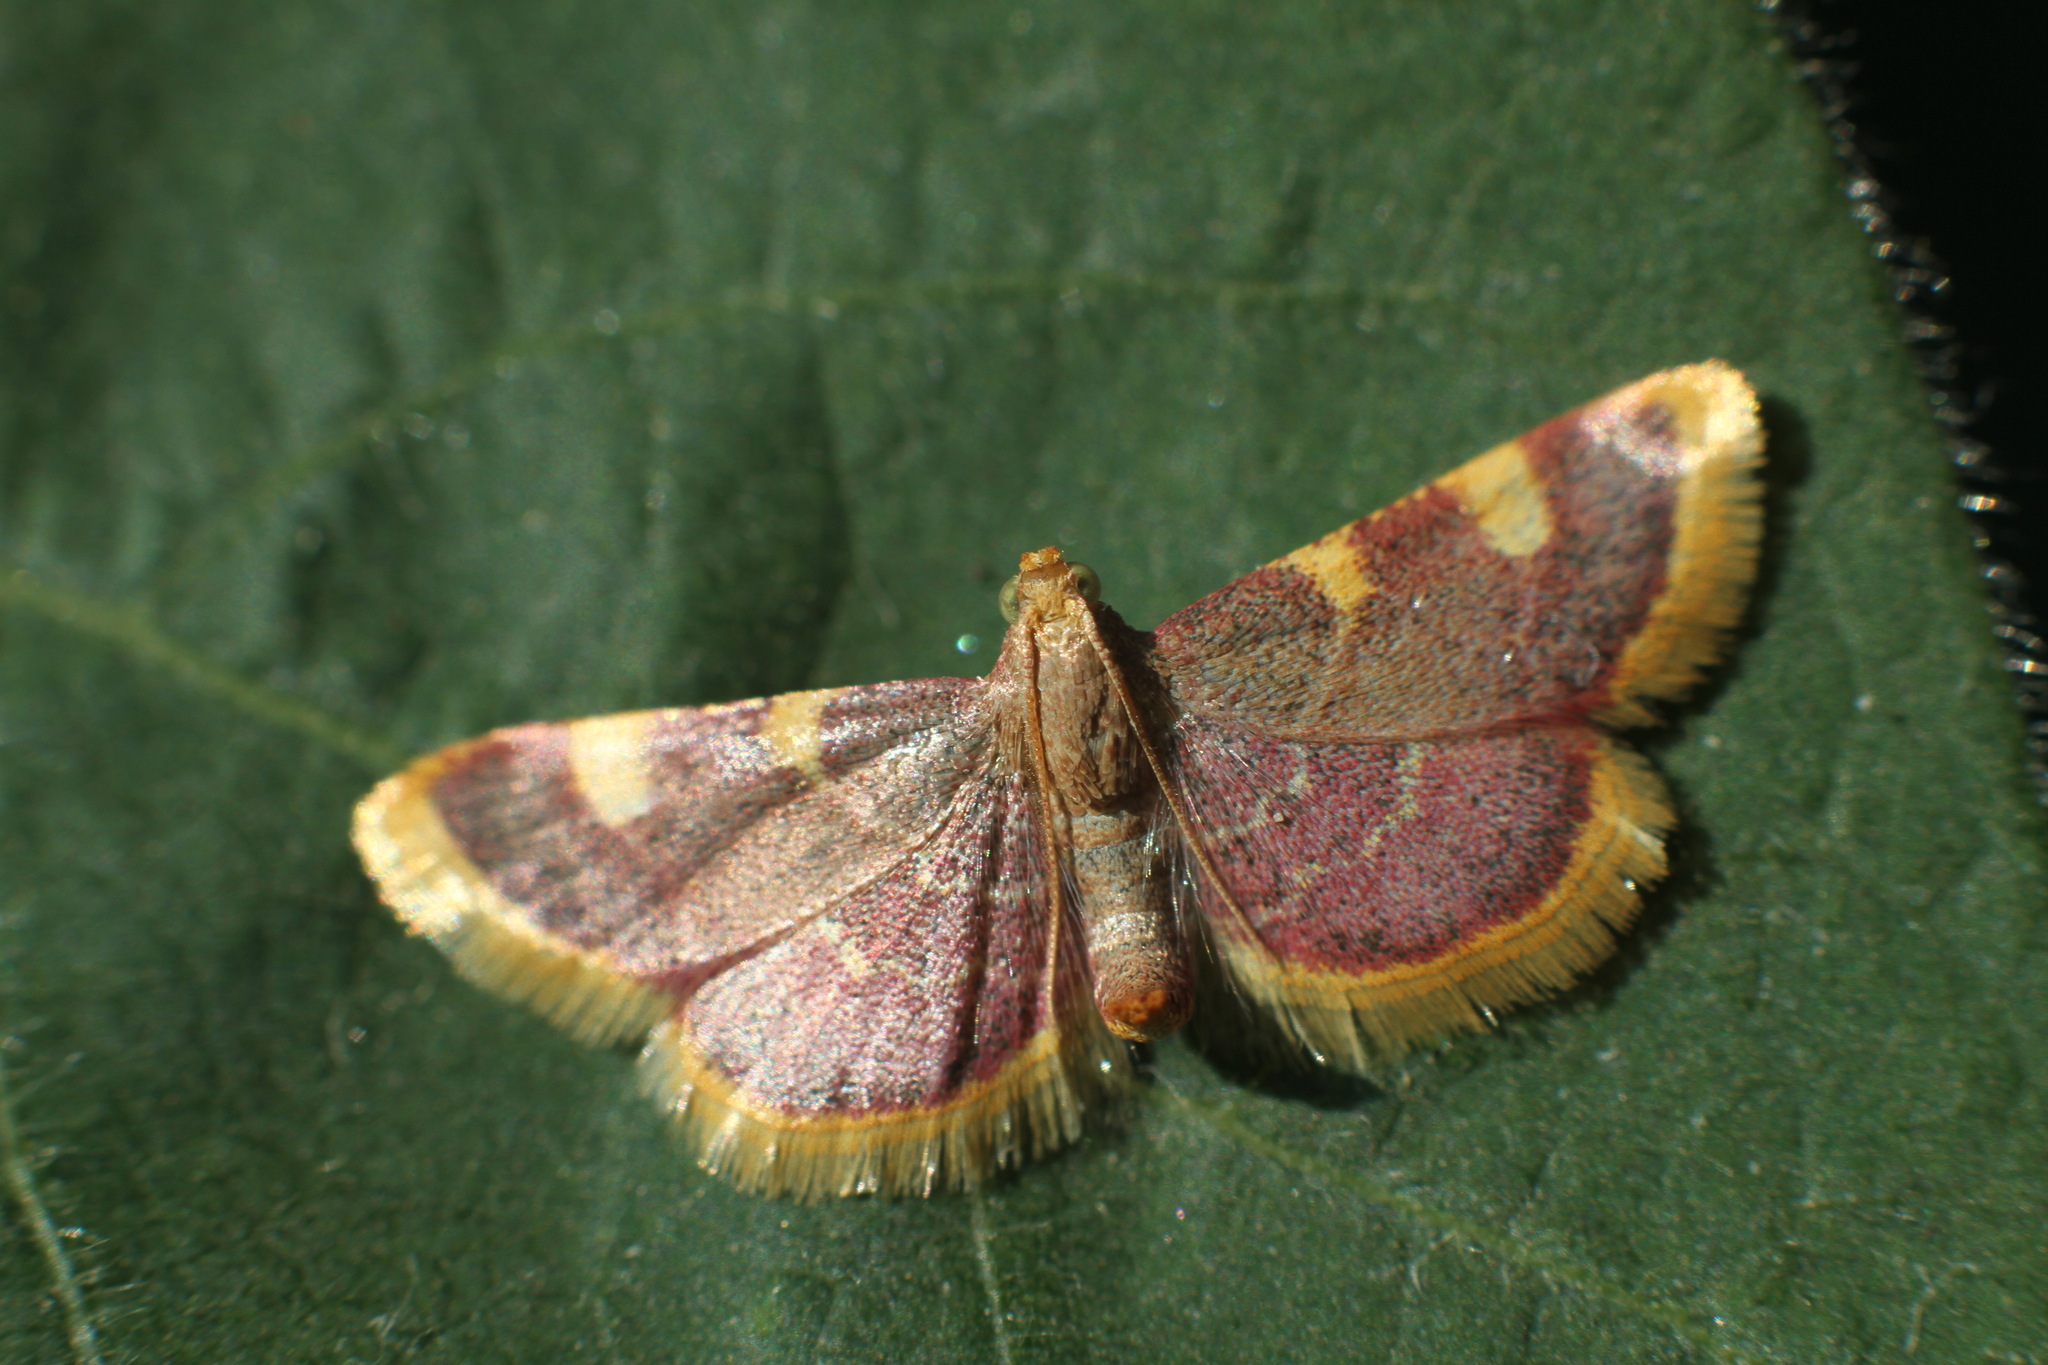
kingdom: Animalia
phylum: Arthropoda
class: Insecta
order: Lepidoptera
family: Pyralidae
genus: Hypsopygia
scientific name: Hypsopygia costalis
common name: Gold triangle
